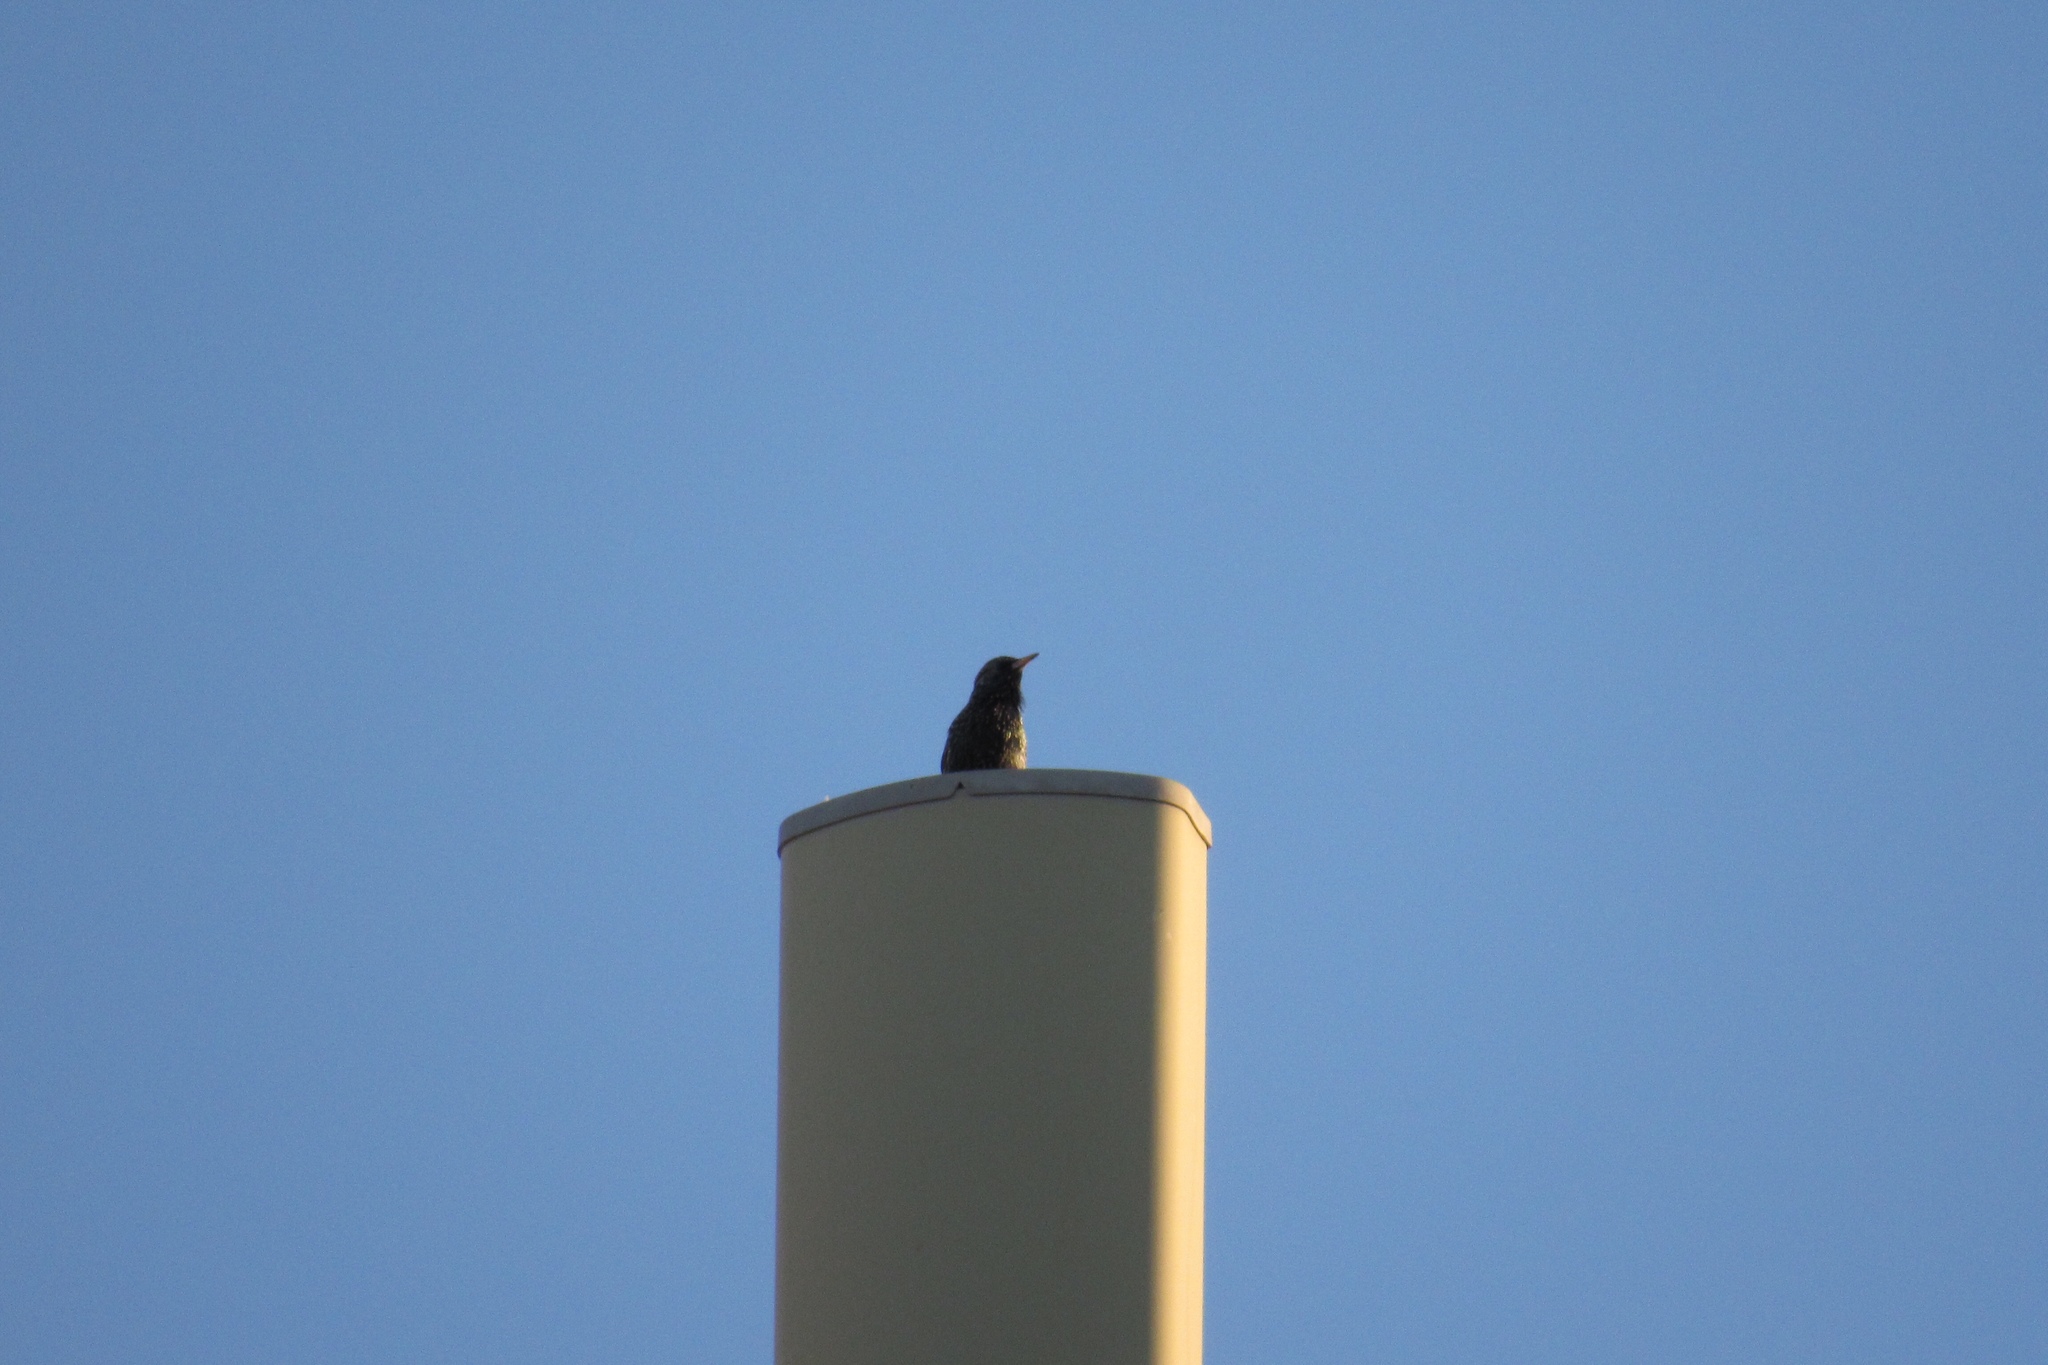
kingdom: Animalia
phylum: Chordata
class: Aves
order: Passeriformes
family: Sturnidae
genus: Sturnus
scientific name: Sturnus vulgaris
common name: Common starling
